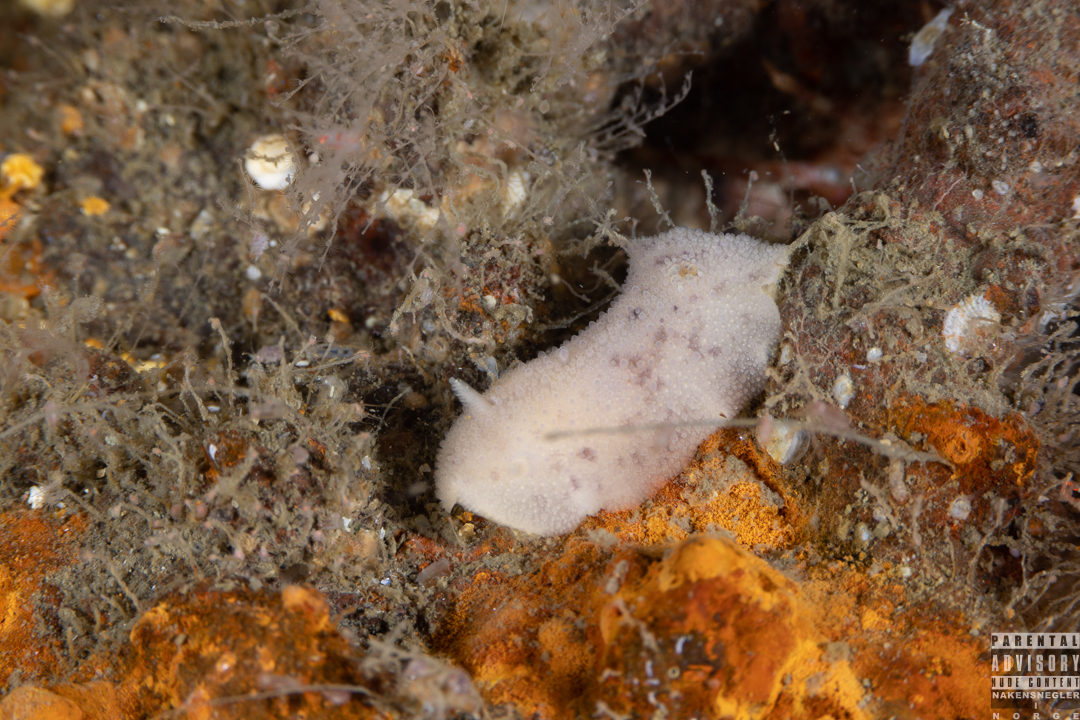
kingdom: Animalia
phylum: Mollusca
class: Gastropoda
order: Nudibranchia
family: Dorididae
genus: Doris
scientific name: Doris pseudoargus
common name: Sea lemon
